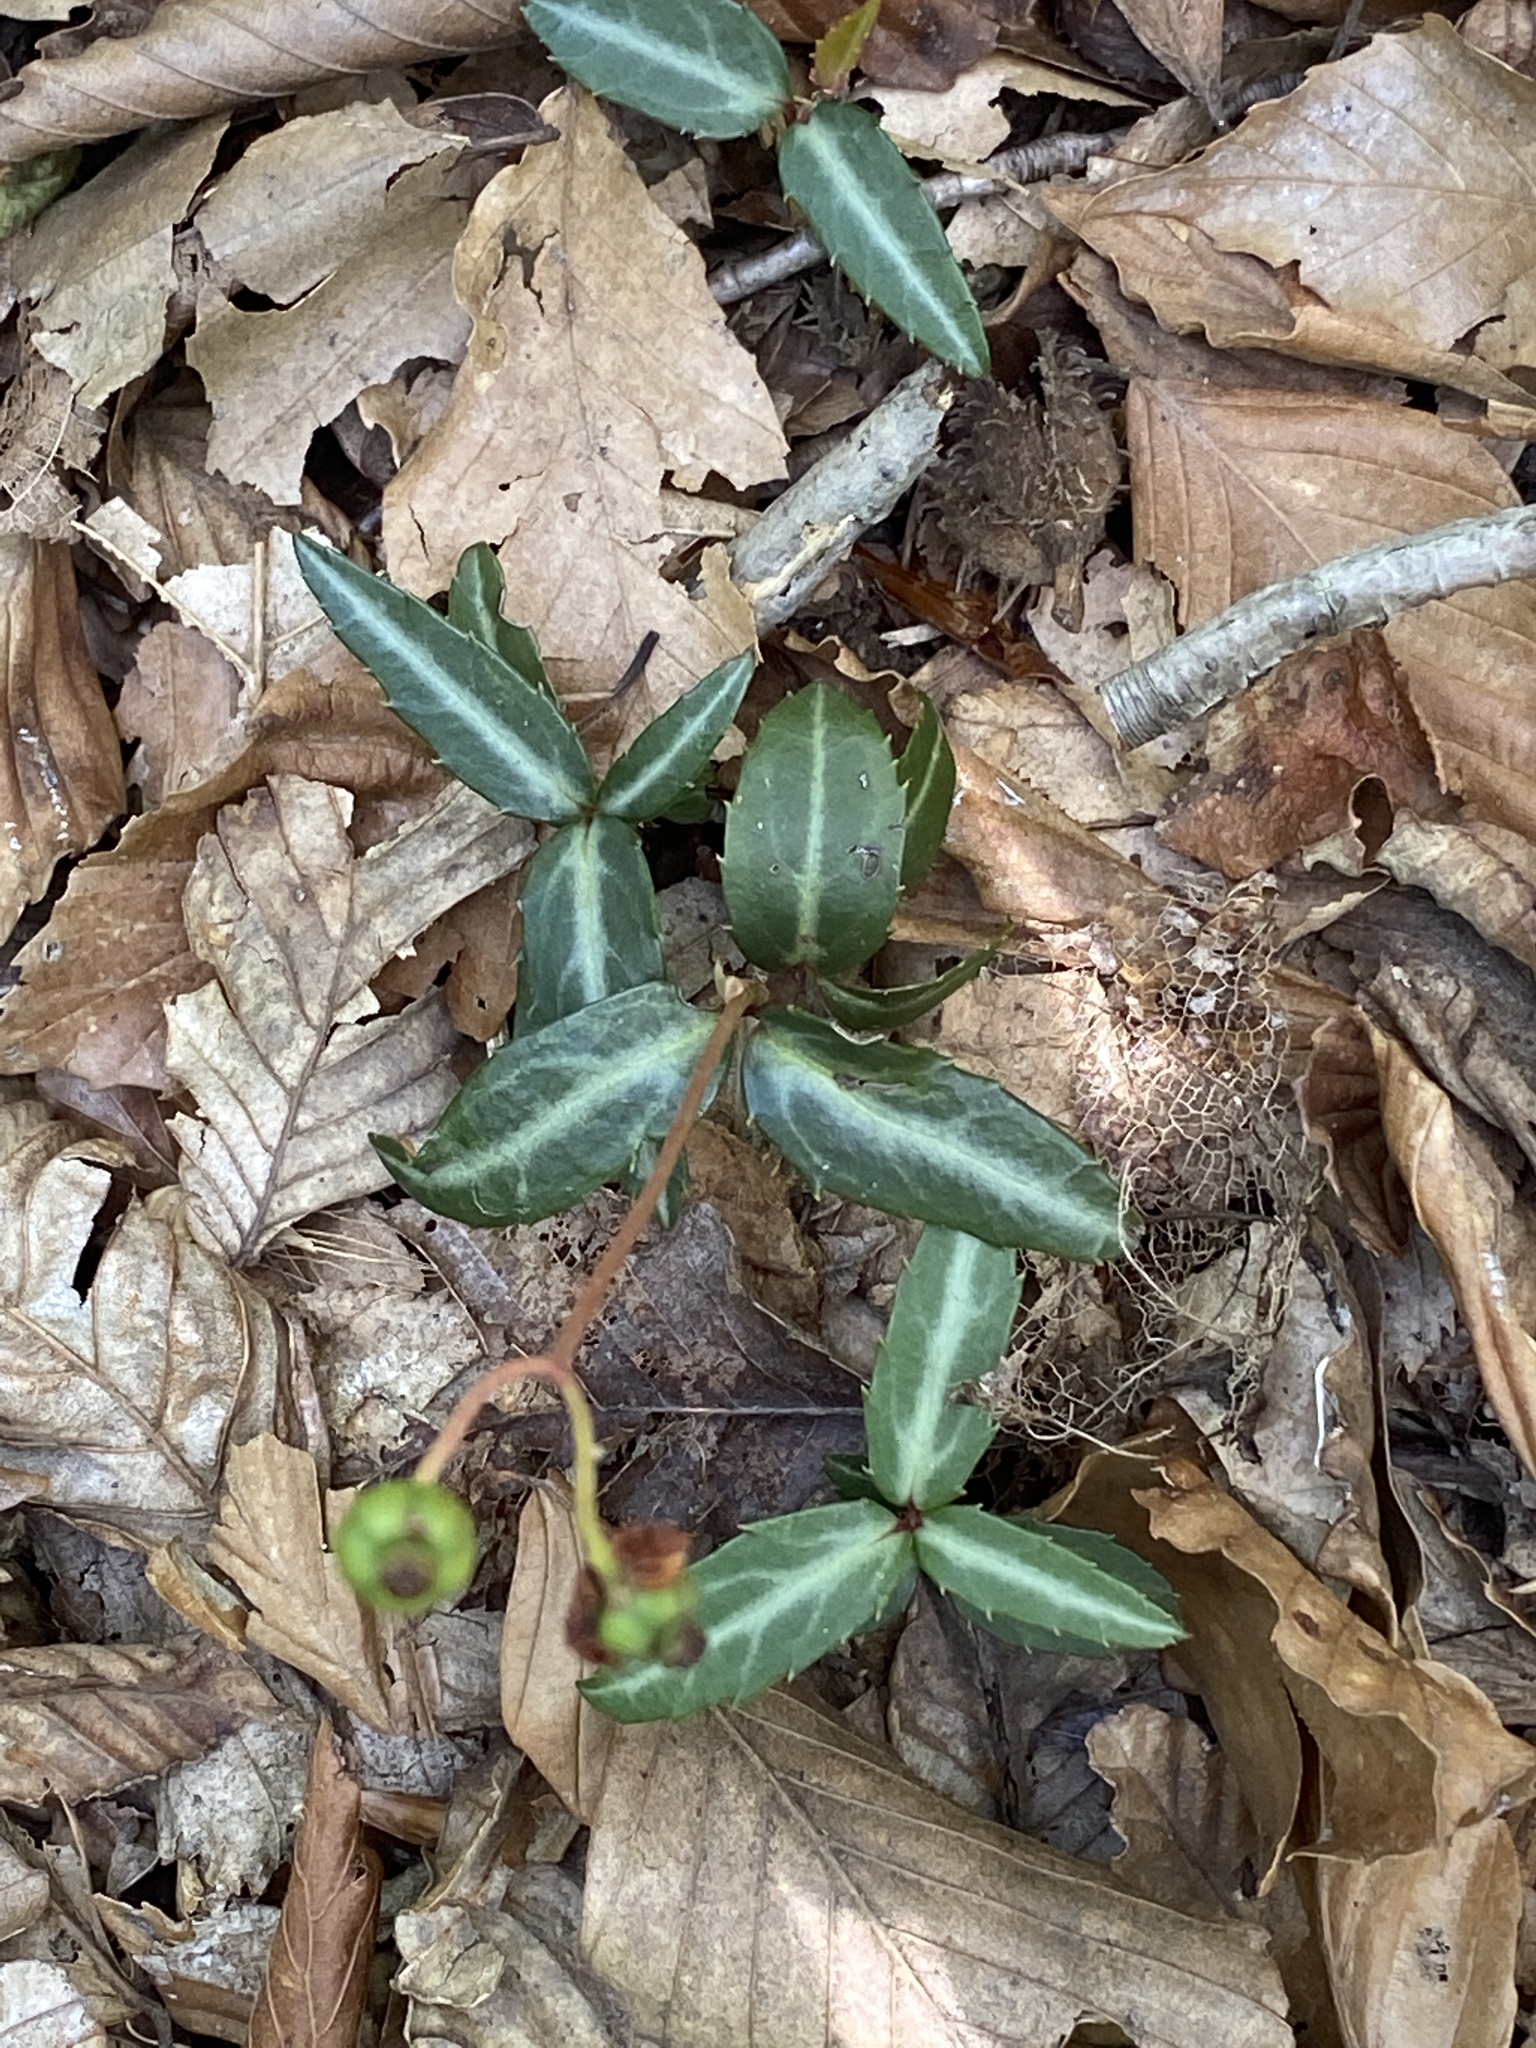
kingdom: Plantae
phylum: Tracheophyta
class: Magnoliopsida
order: Ericales
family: Ericaceae
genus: Chimaphila
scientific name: Chimaphila maculata
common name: Spotted pipsissewa
